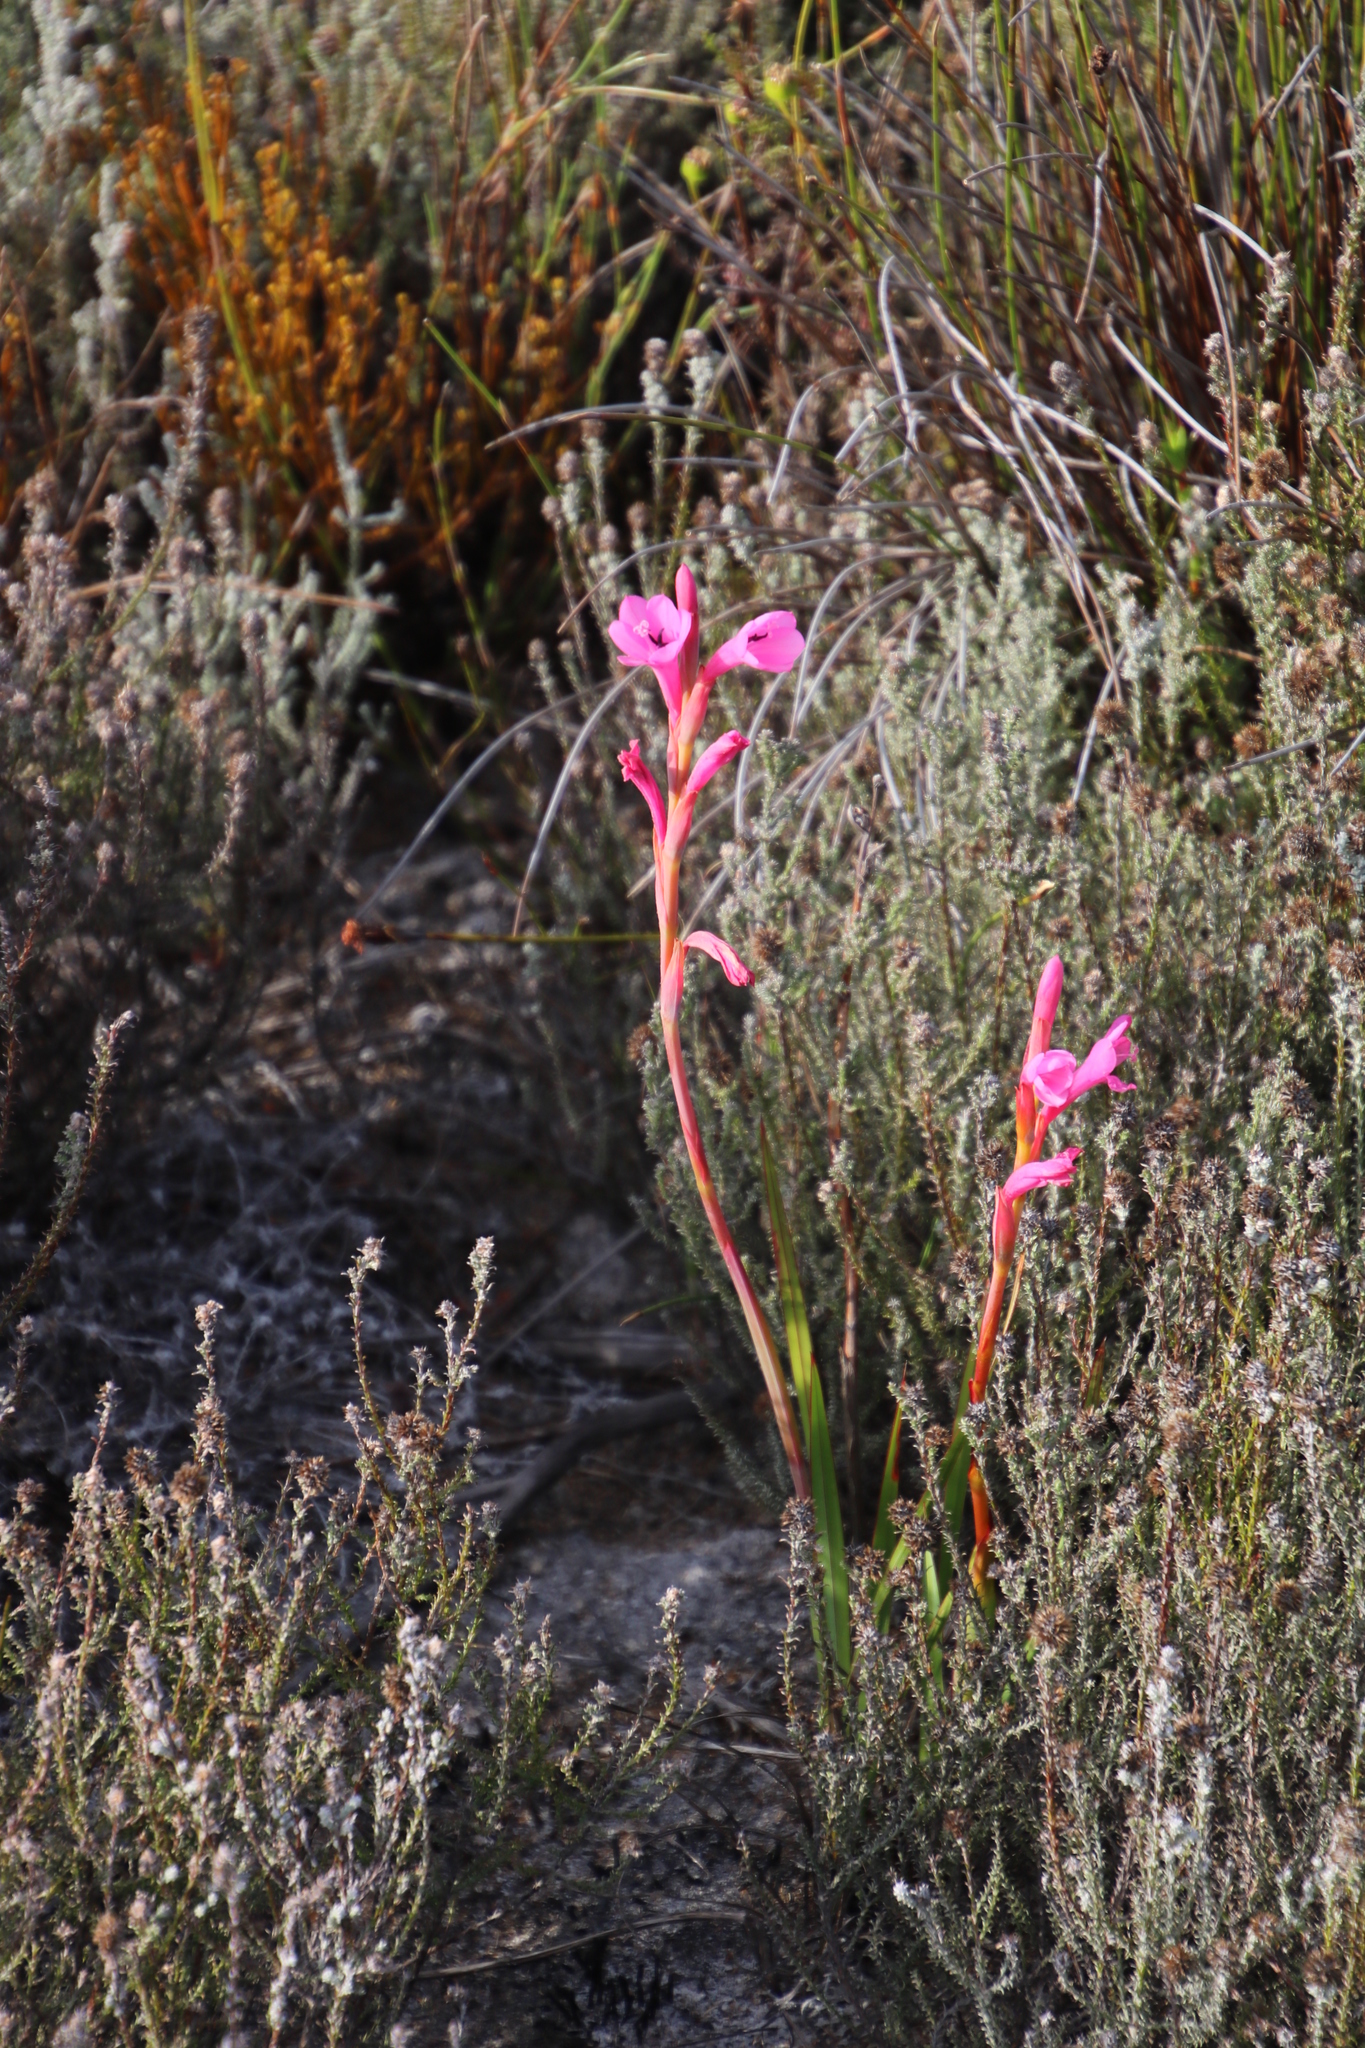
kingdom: Plantae
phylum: Tracheophyta
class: Liliopsida
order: Asparagales
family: Iridaceae
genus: Watsonia
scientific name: Watsonia coccinea
